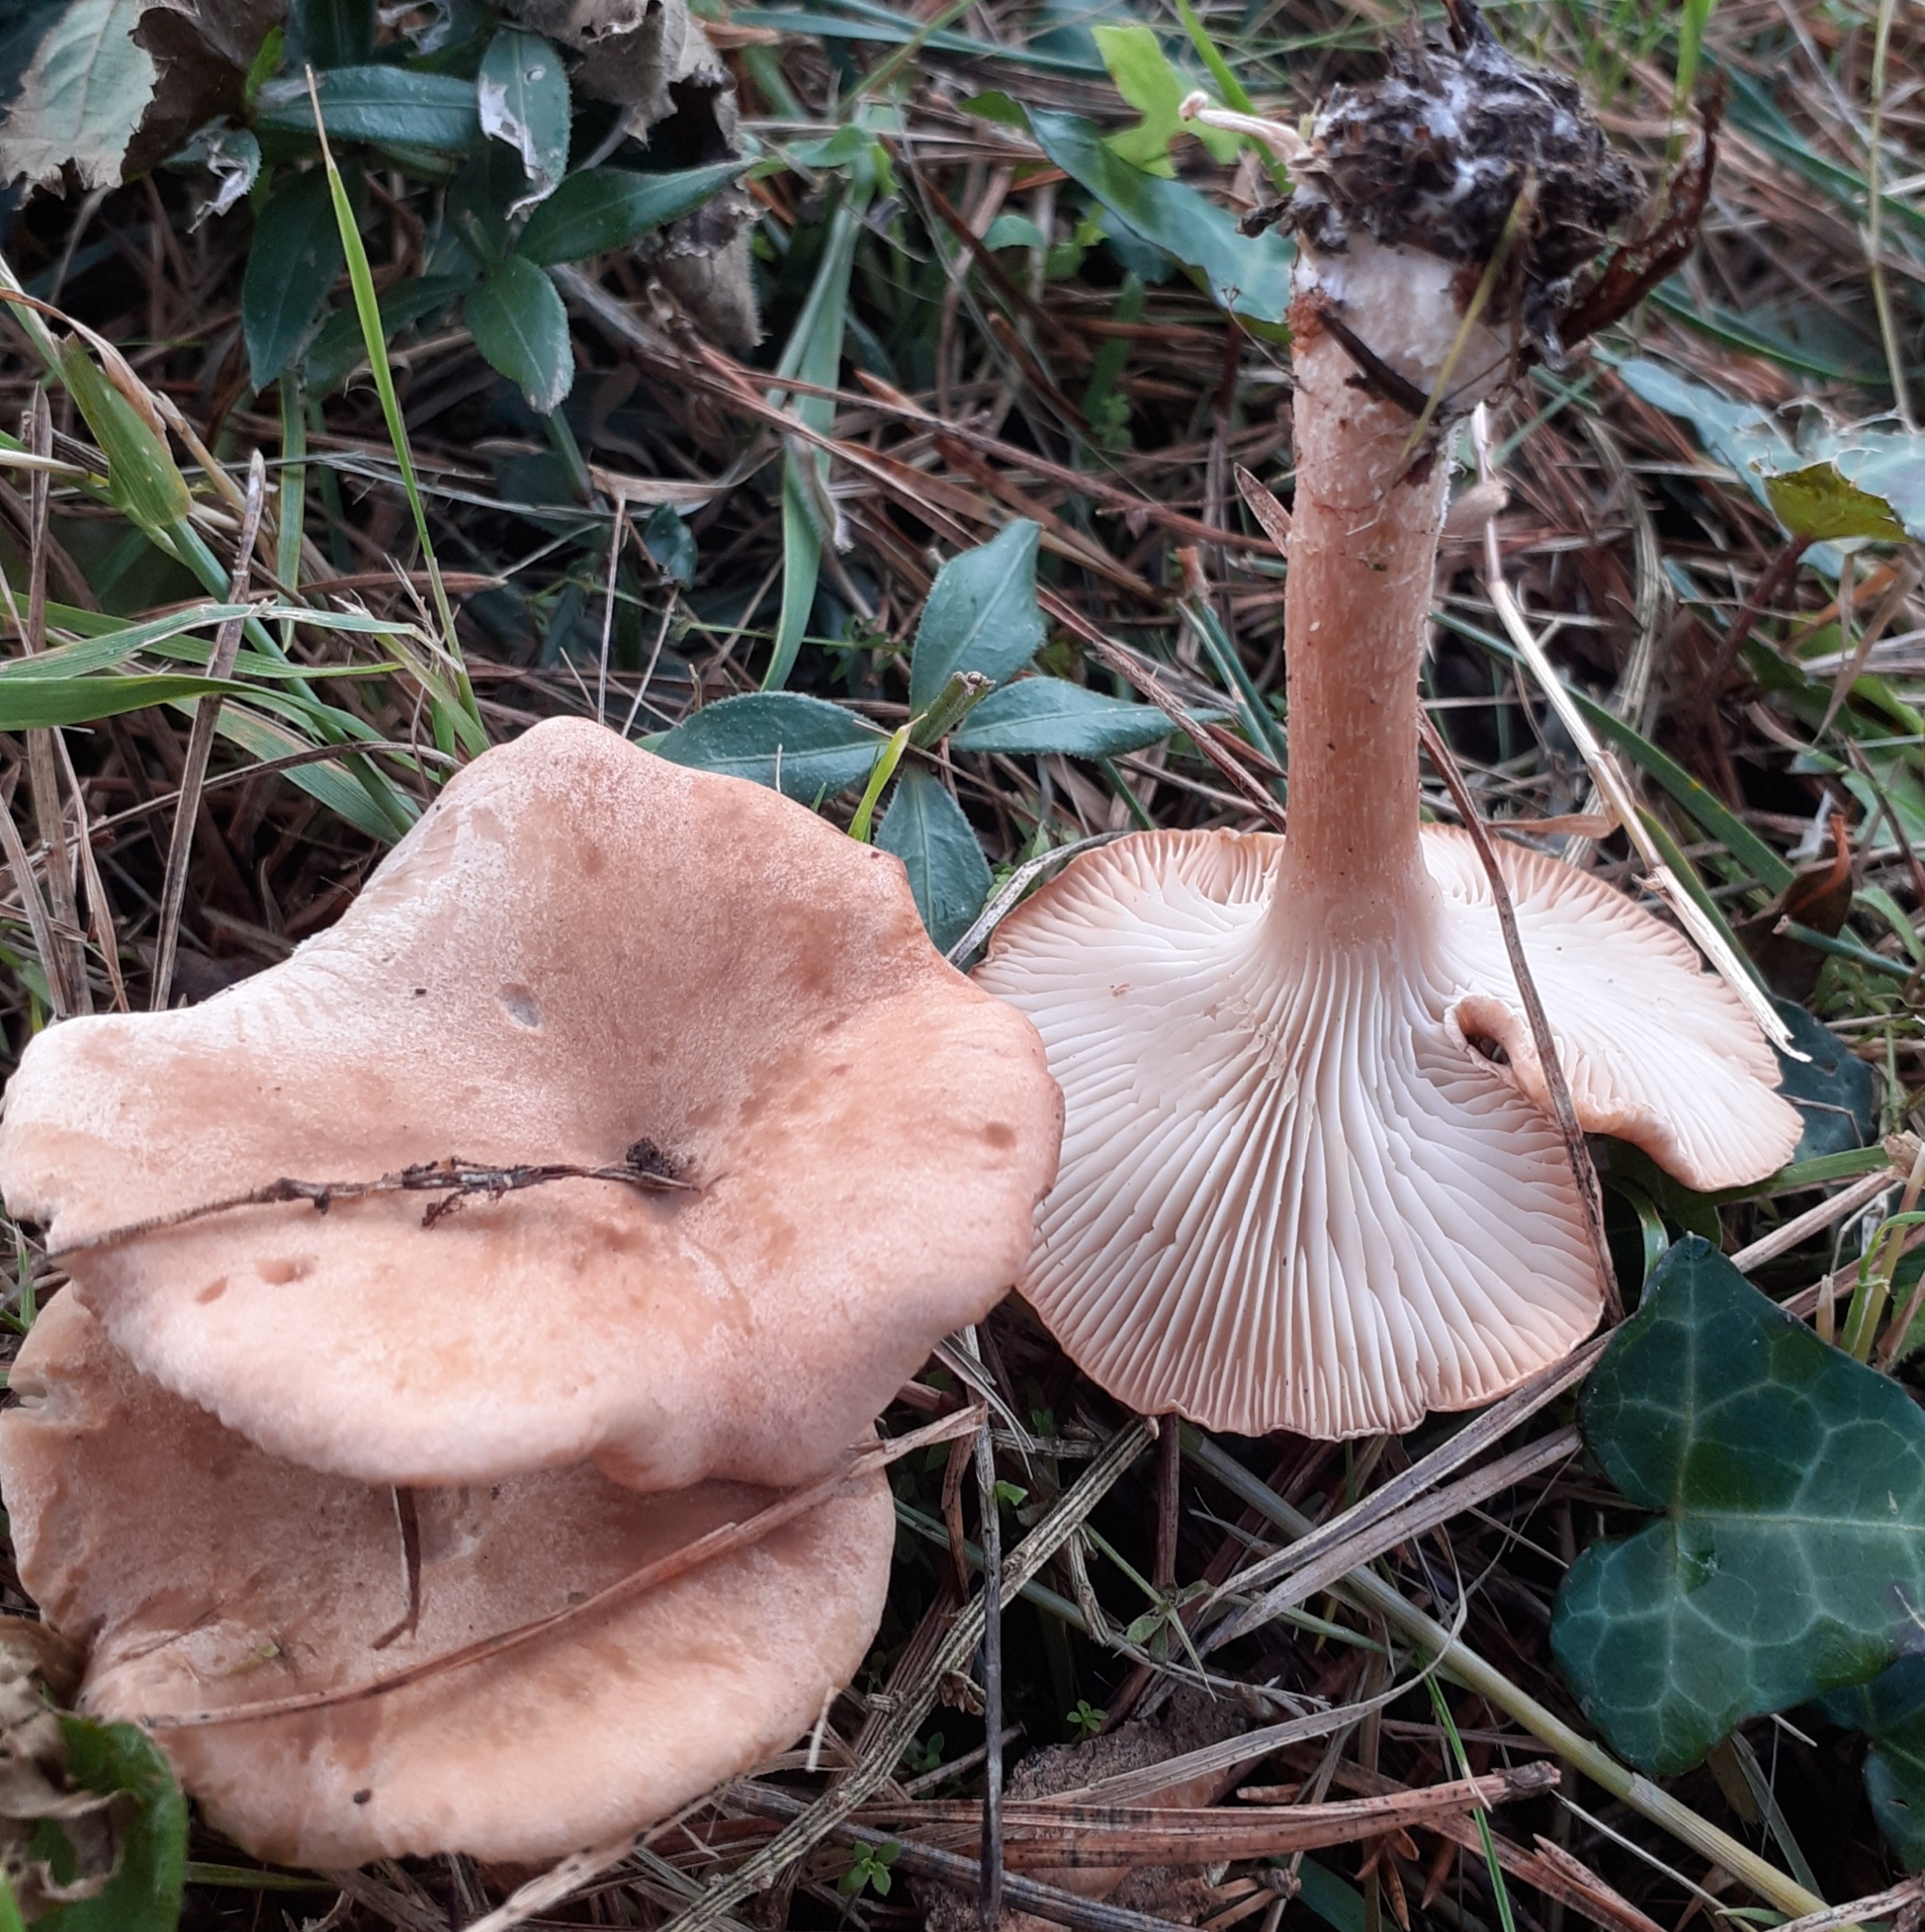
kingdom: Fungi
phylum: Basidiomycota
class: Agaricomycetes
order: Agaricales
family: Tricholomataceae
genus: Infundibulicybe
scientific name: Infundibulicybe gibba
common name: Common funnel
